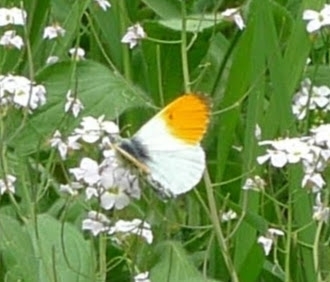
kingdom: Animalia
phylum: Arthropoda
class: Insecta
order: Lepidoptera
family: Pieridae
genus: Anthocharis
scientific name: Anthocharis cardamines
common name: Orange-tip
